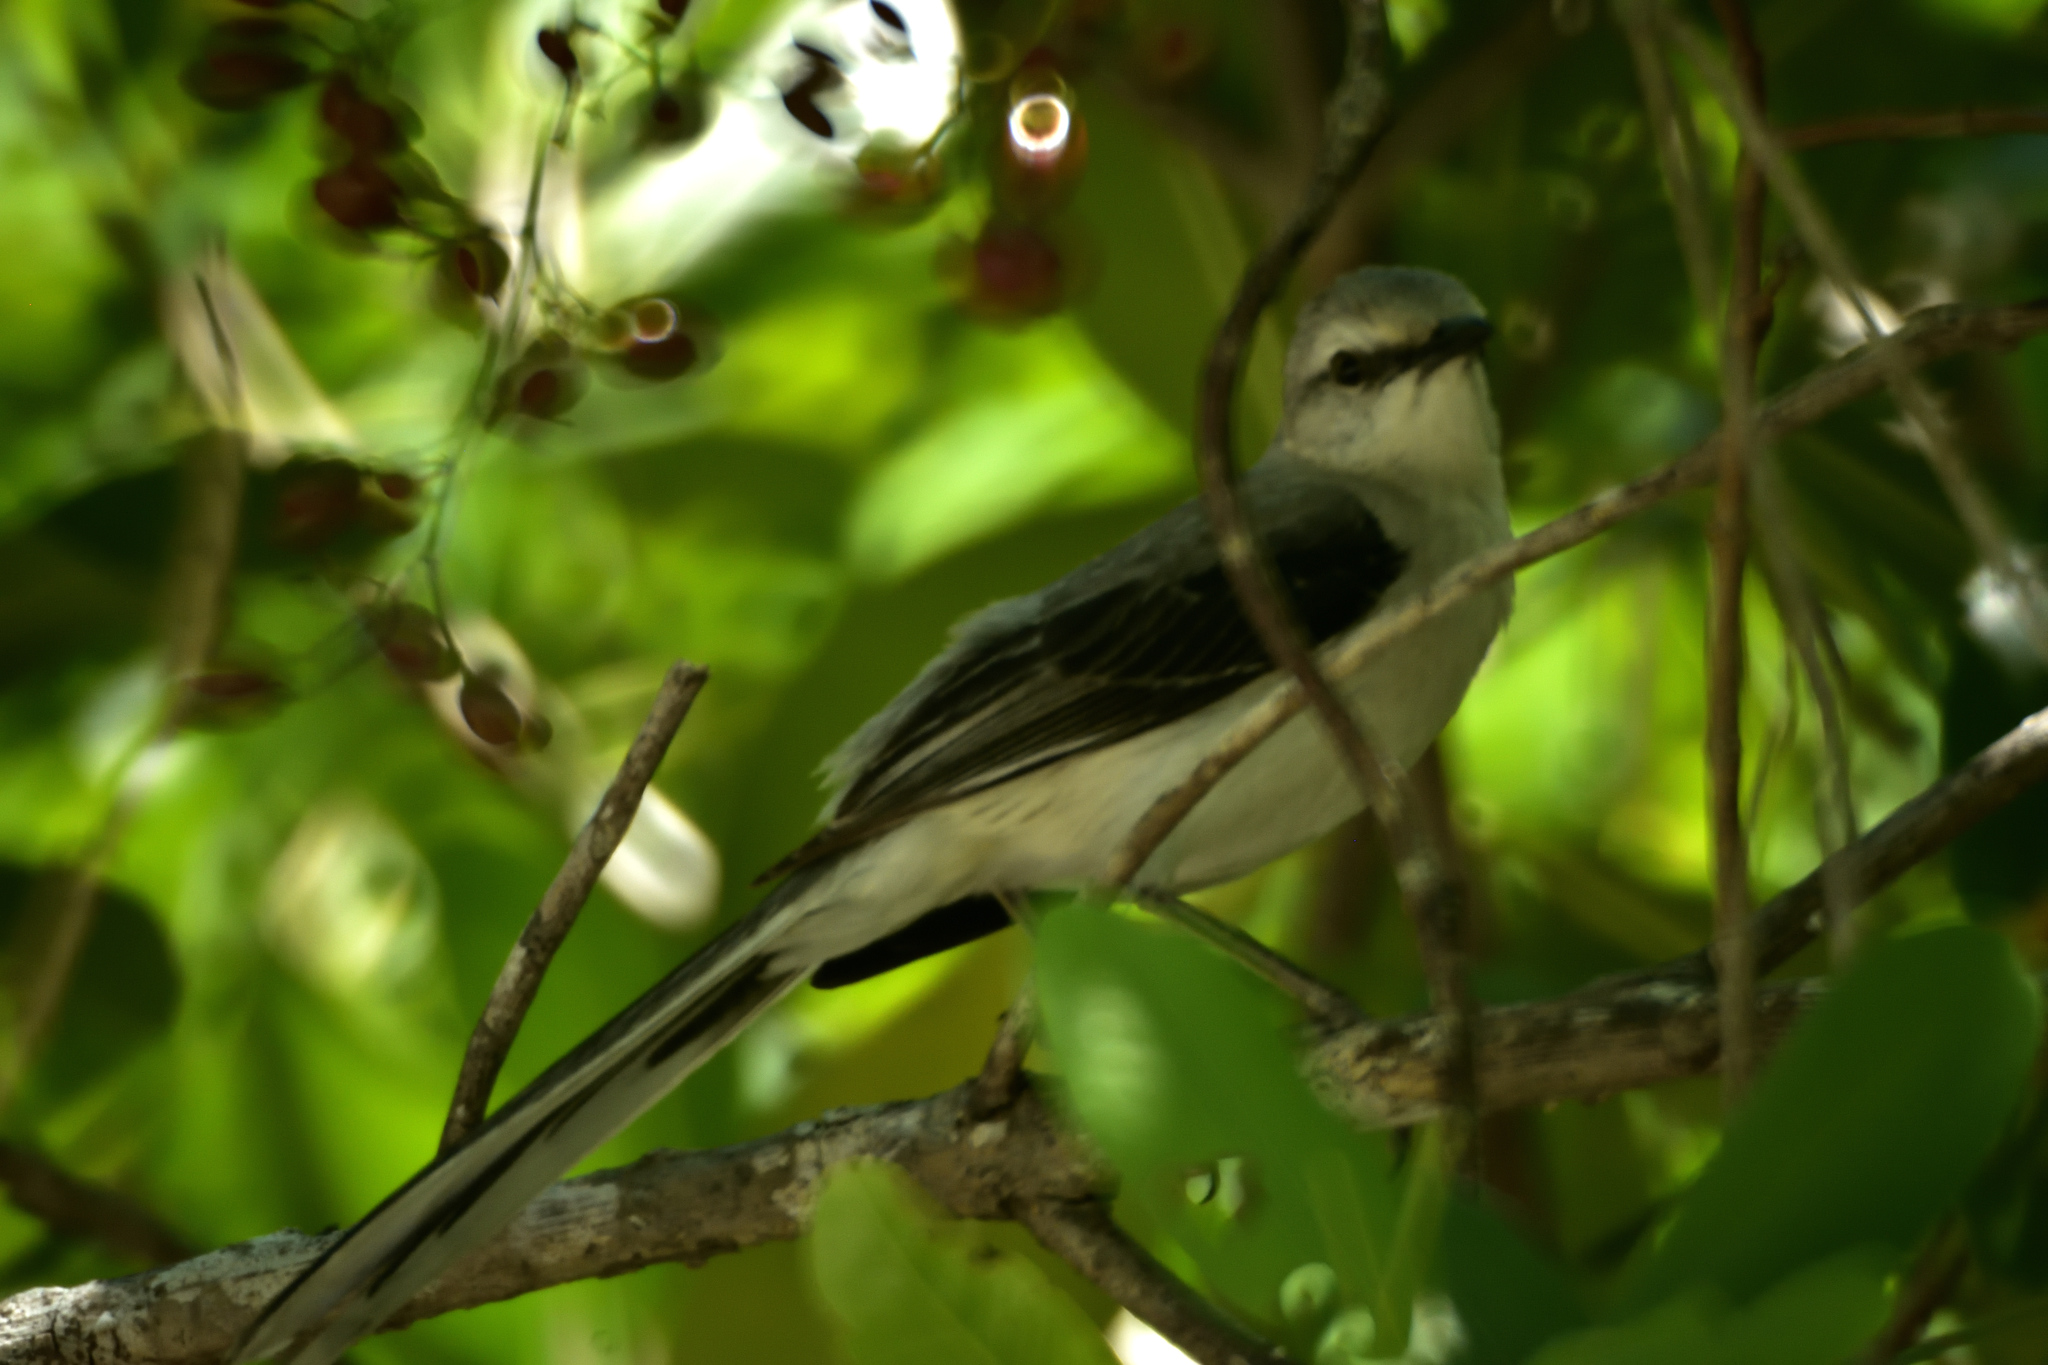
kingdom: Animalia
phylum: Chordata
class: Aves
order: Passeriformes
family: Mimidae
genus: Mimus
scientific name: Mimus gilvus
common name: Tropical mockingbird
